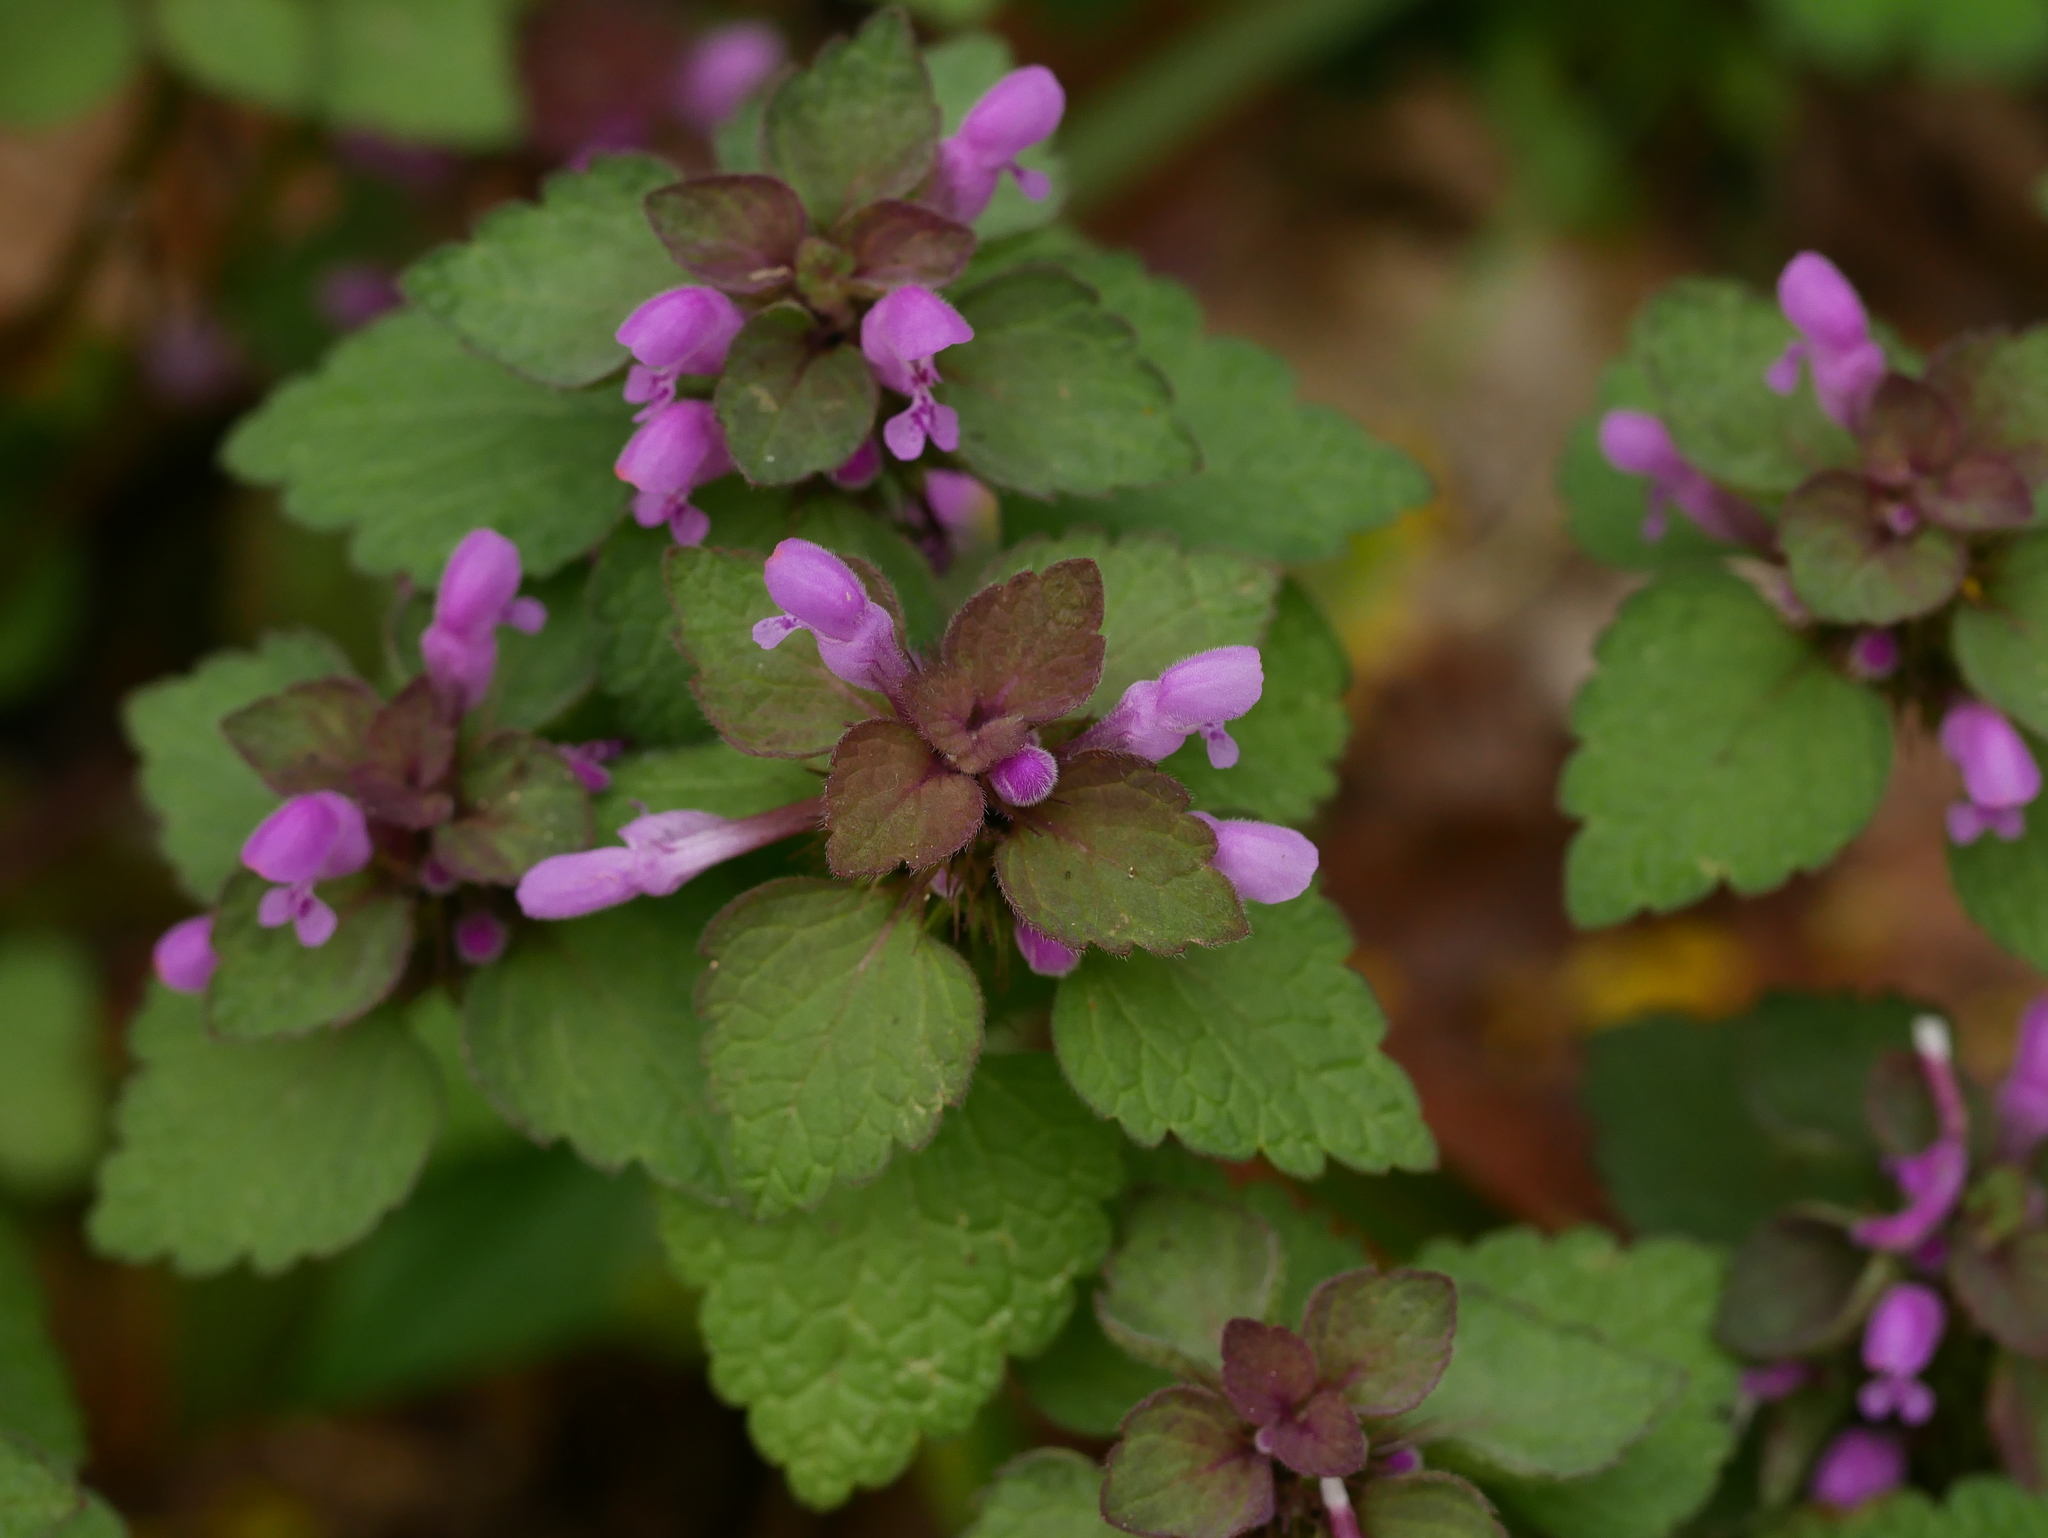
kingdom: Plantae
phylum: Tracheophyta
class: Magnoliopsida
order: Lamiales
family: Lamiaceae
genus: Lamium
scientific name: Lamium purpureum
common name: Red dead-nettle
